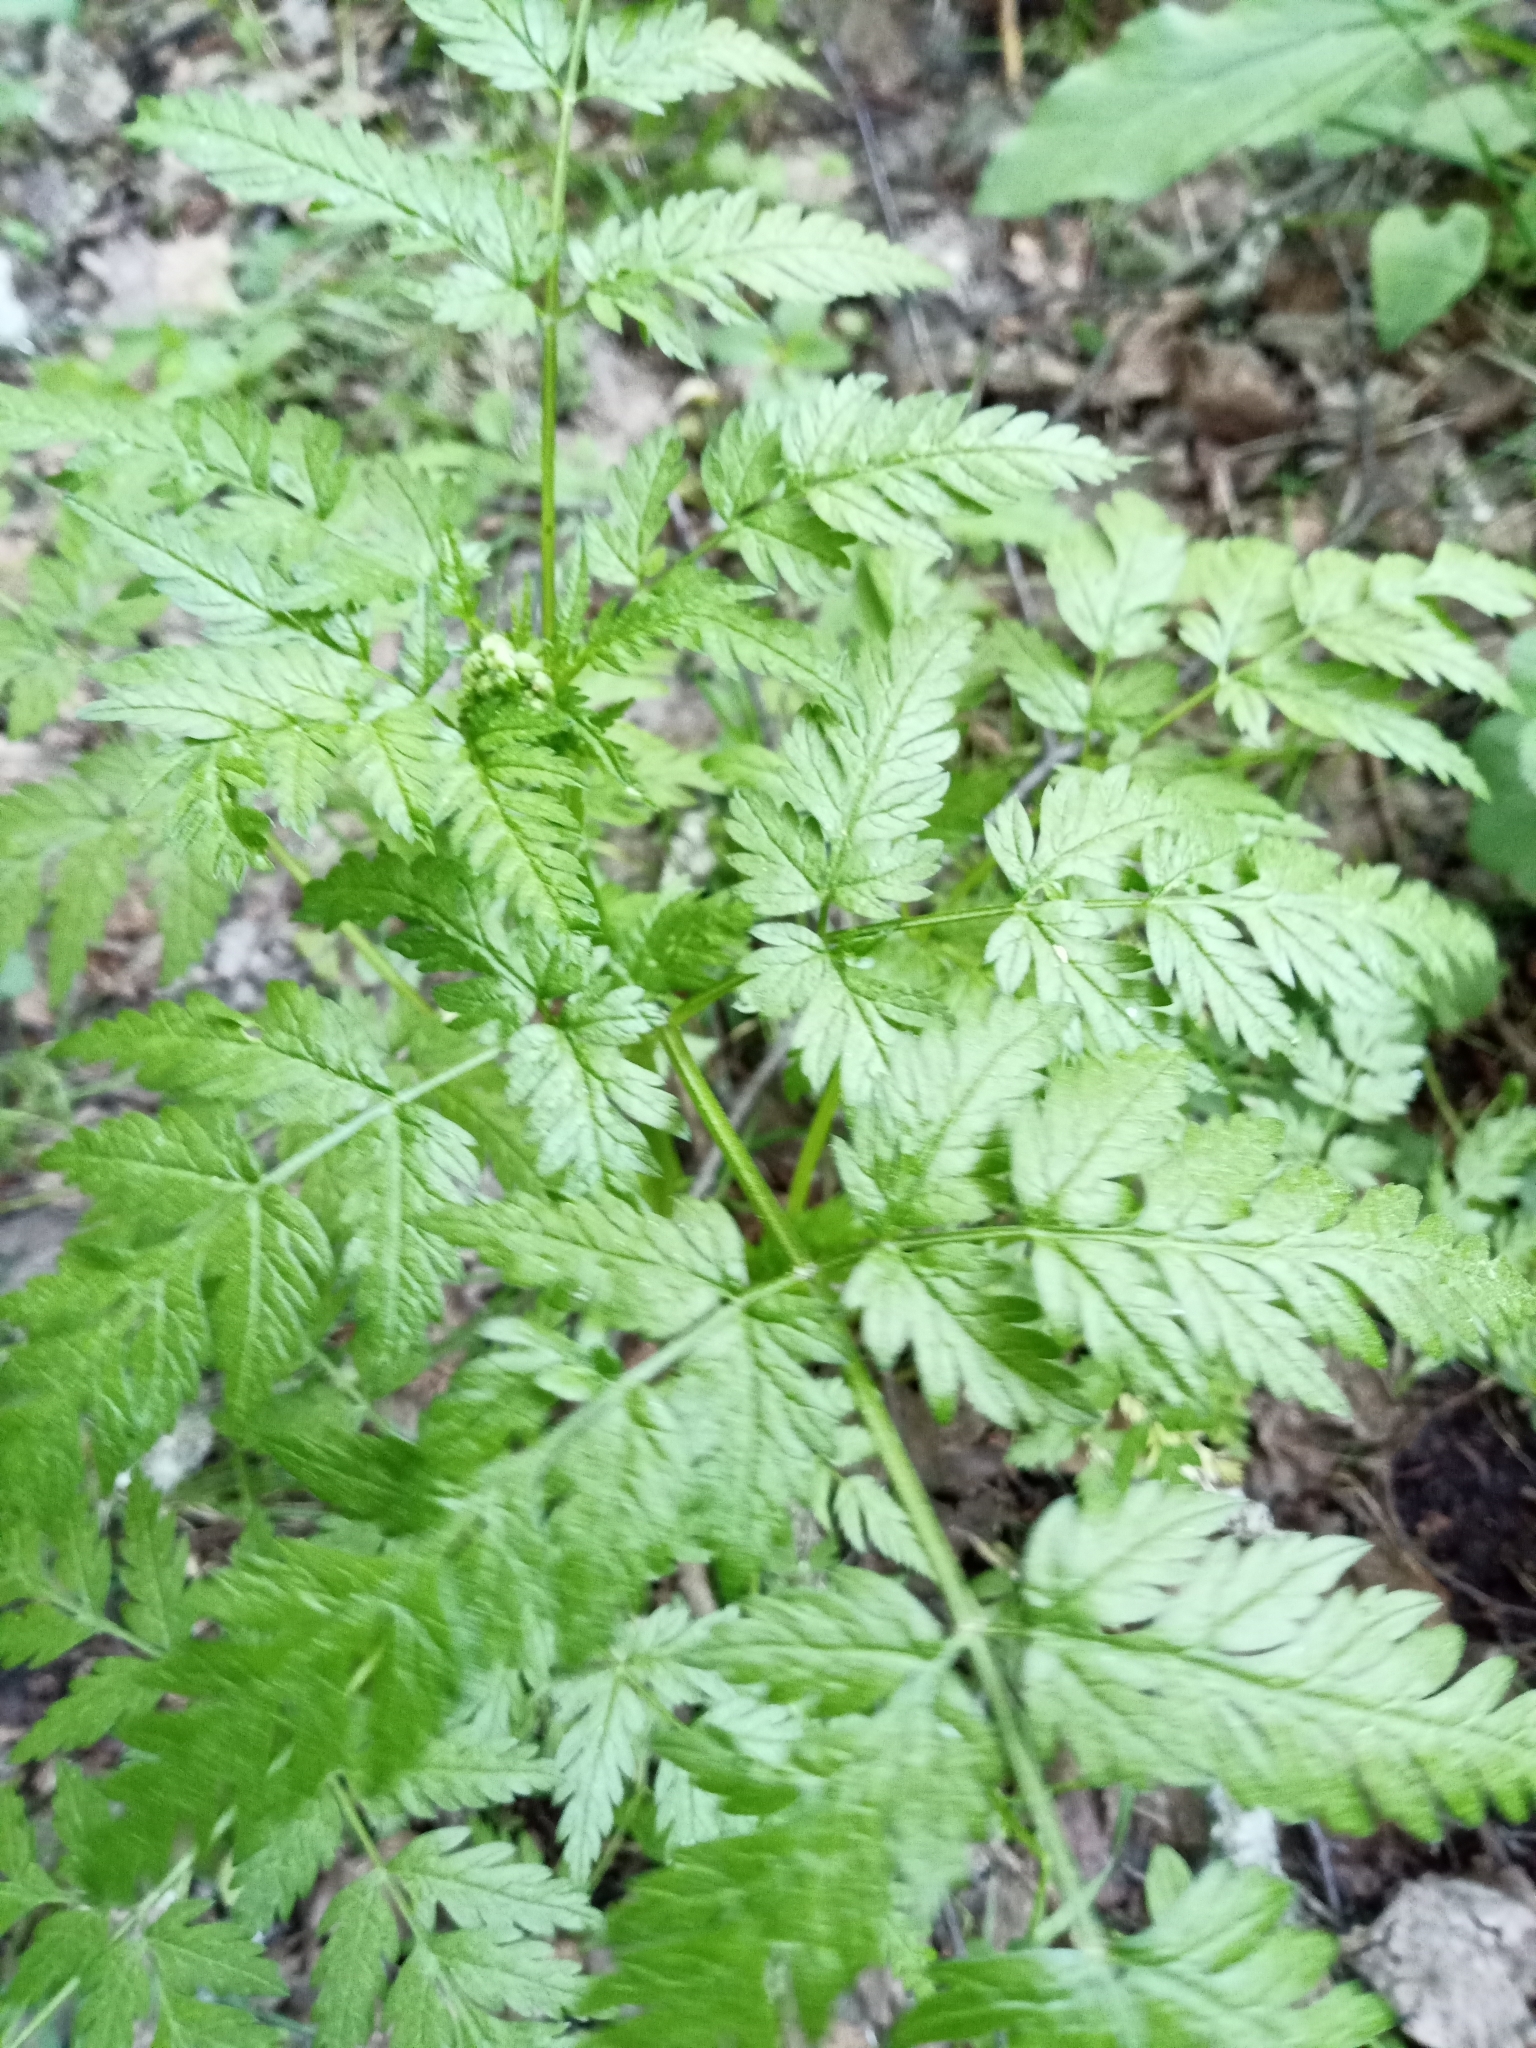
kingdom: Plantae
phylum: Tracheophyta
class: Magnoliopsida
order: Apiales
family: Apiaceae
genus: Anthriscus
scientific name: Anthriscus sylvestris
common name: Cow parsley
